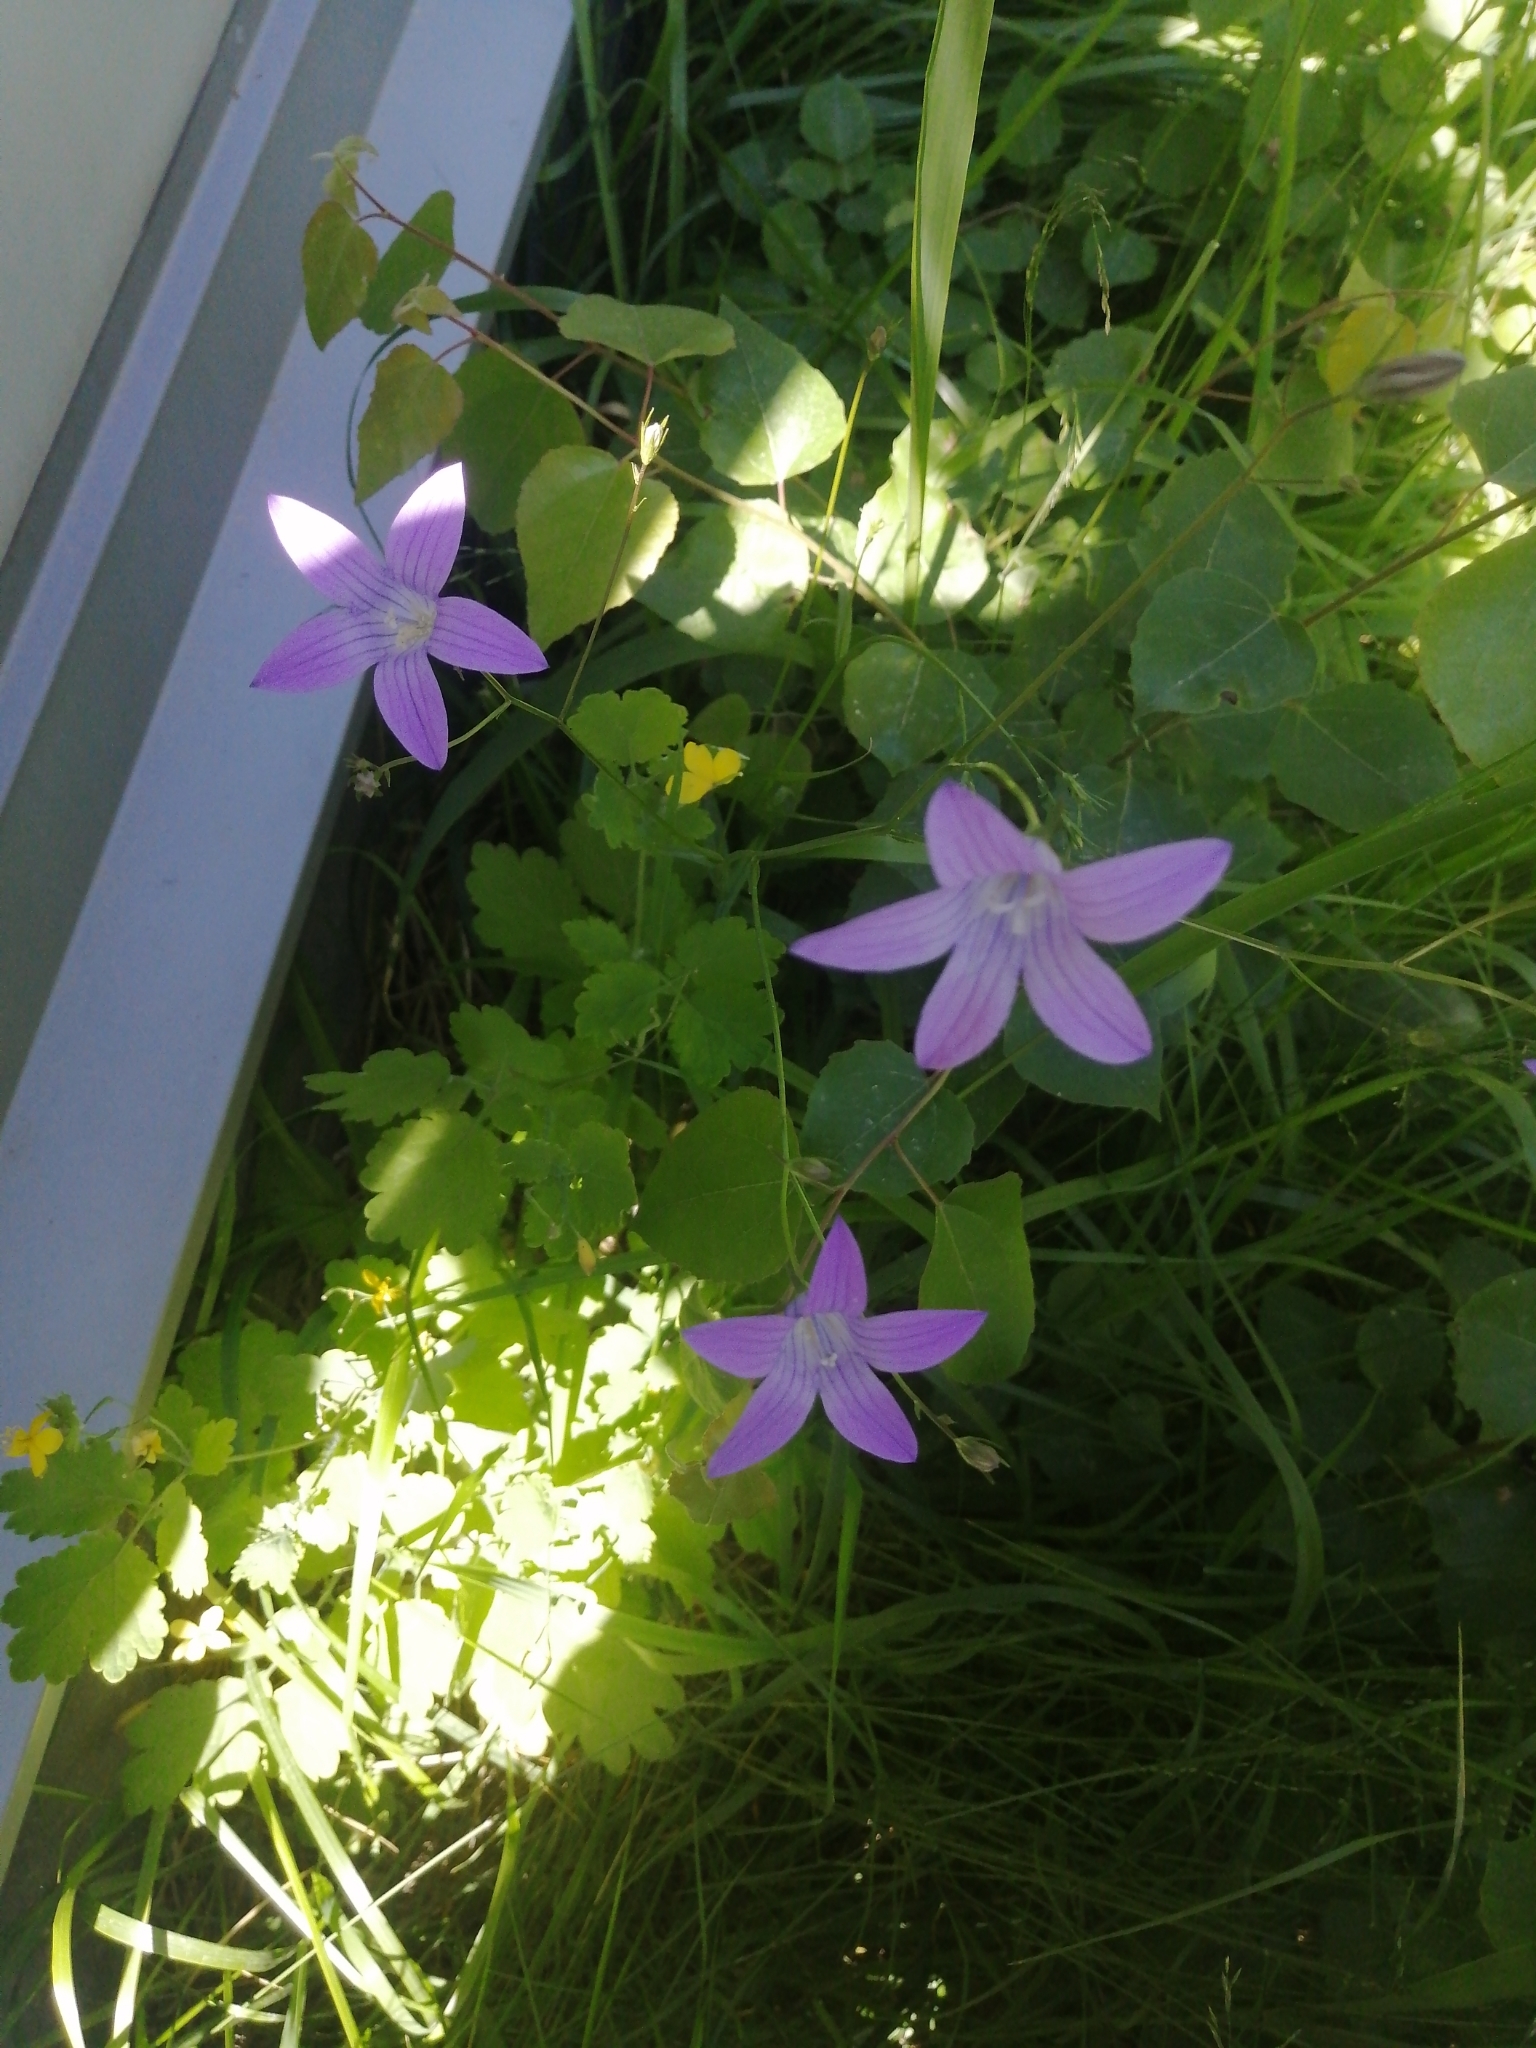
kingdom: Plantae
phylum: Tracheophyta
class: Magnoliopsida
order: Asterales
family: Campanulaceae
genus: Campanula
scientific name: Campanula patula
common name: Spreading bellflower
